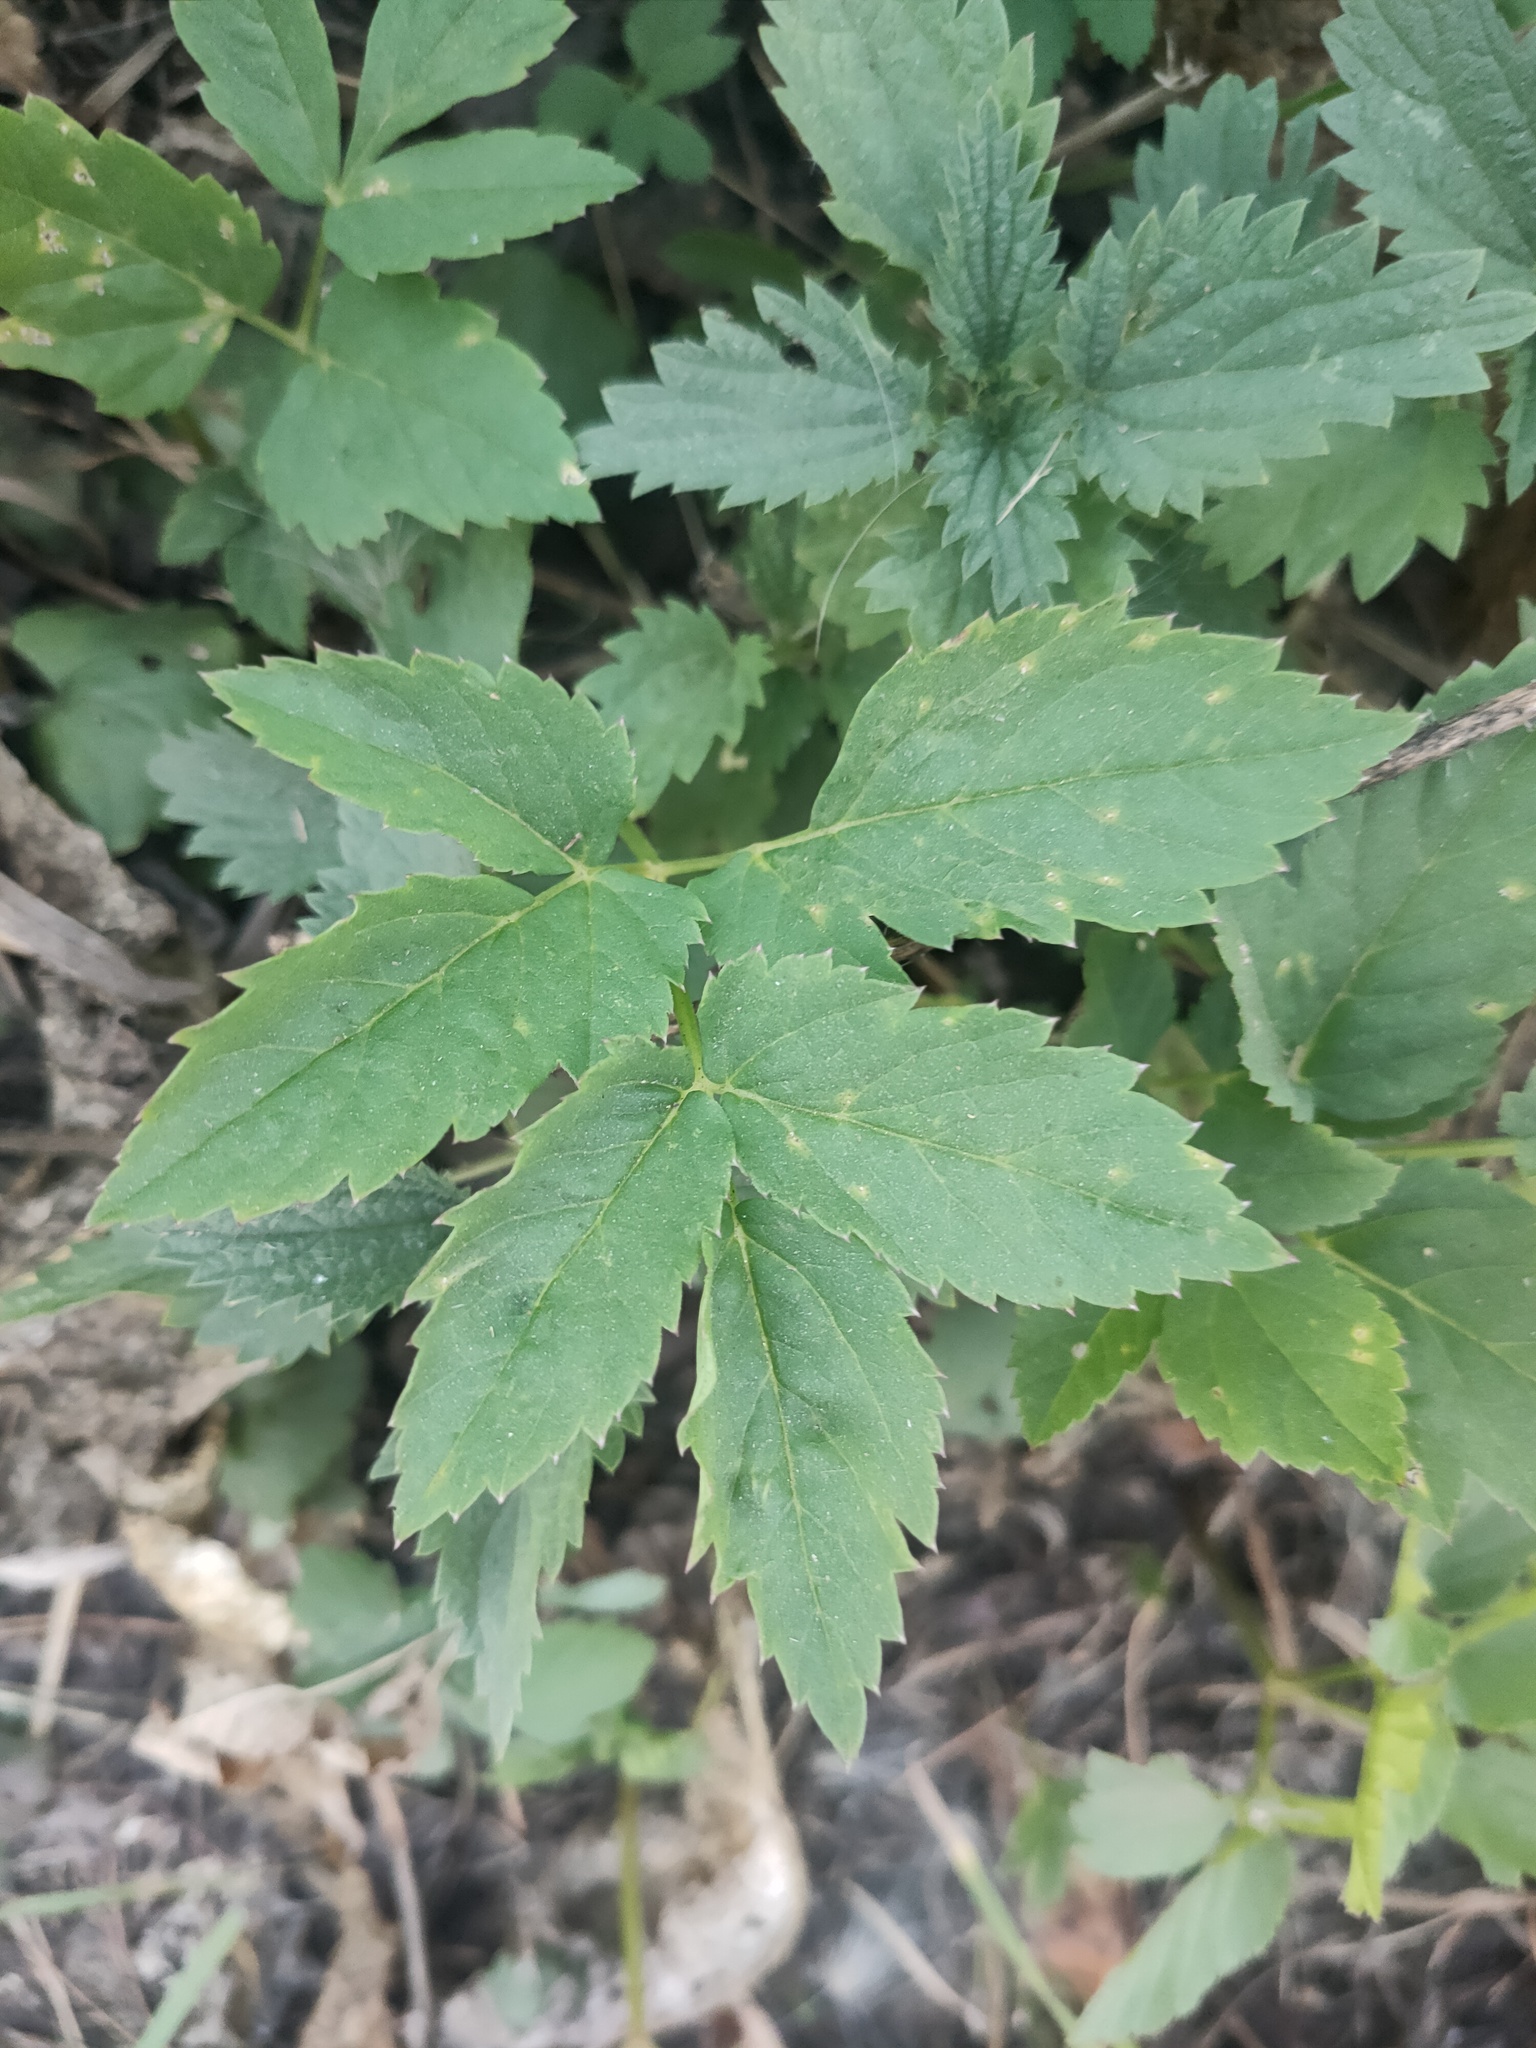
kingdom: Plantae
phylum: Tracheophyta
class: Magnoliopsida
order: Apiales
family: Apiaceae
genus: Aegopodium
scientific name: Aegopodium podagraria
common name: Ground-elder
